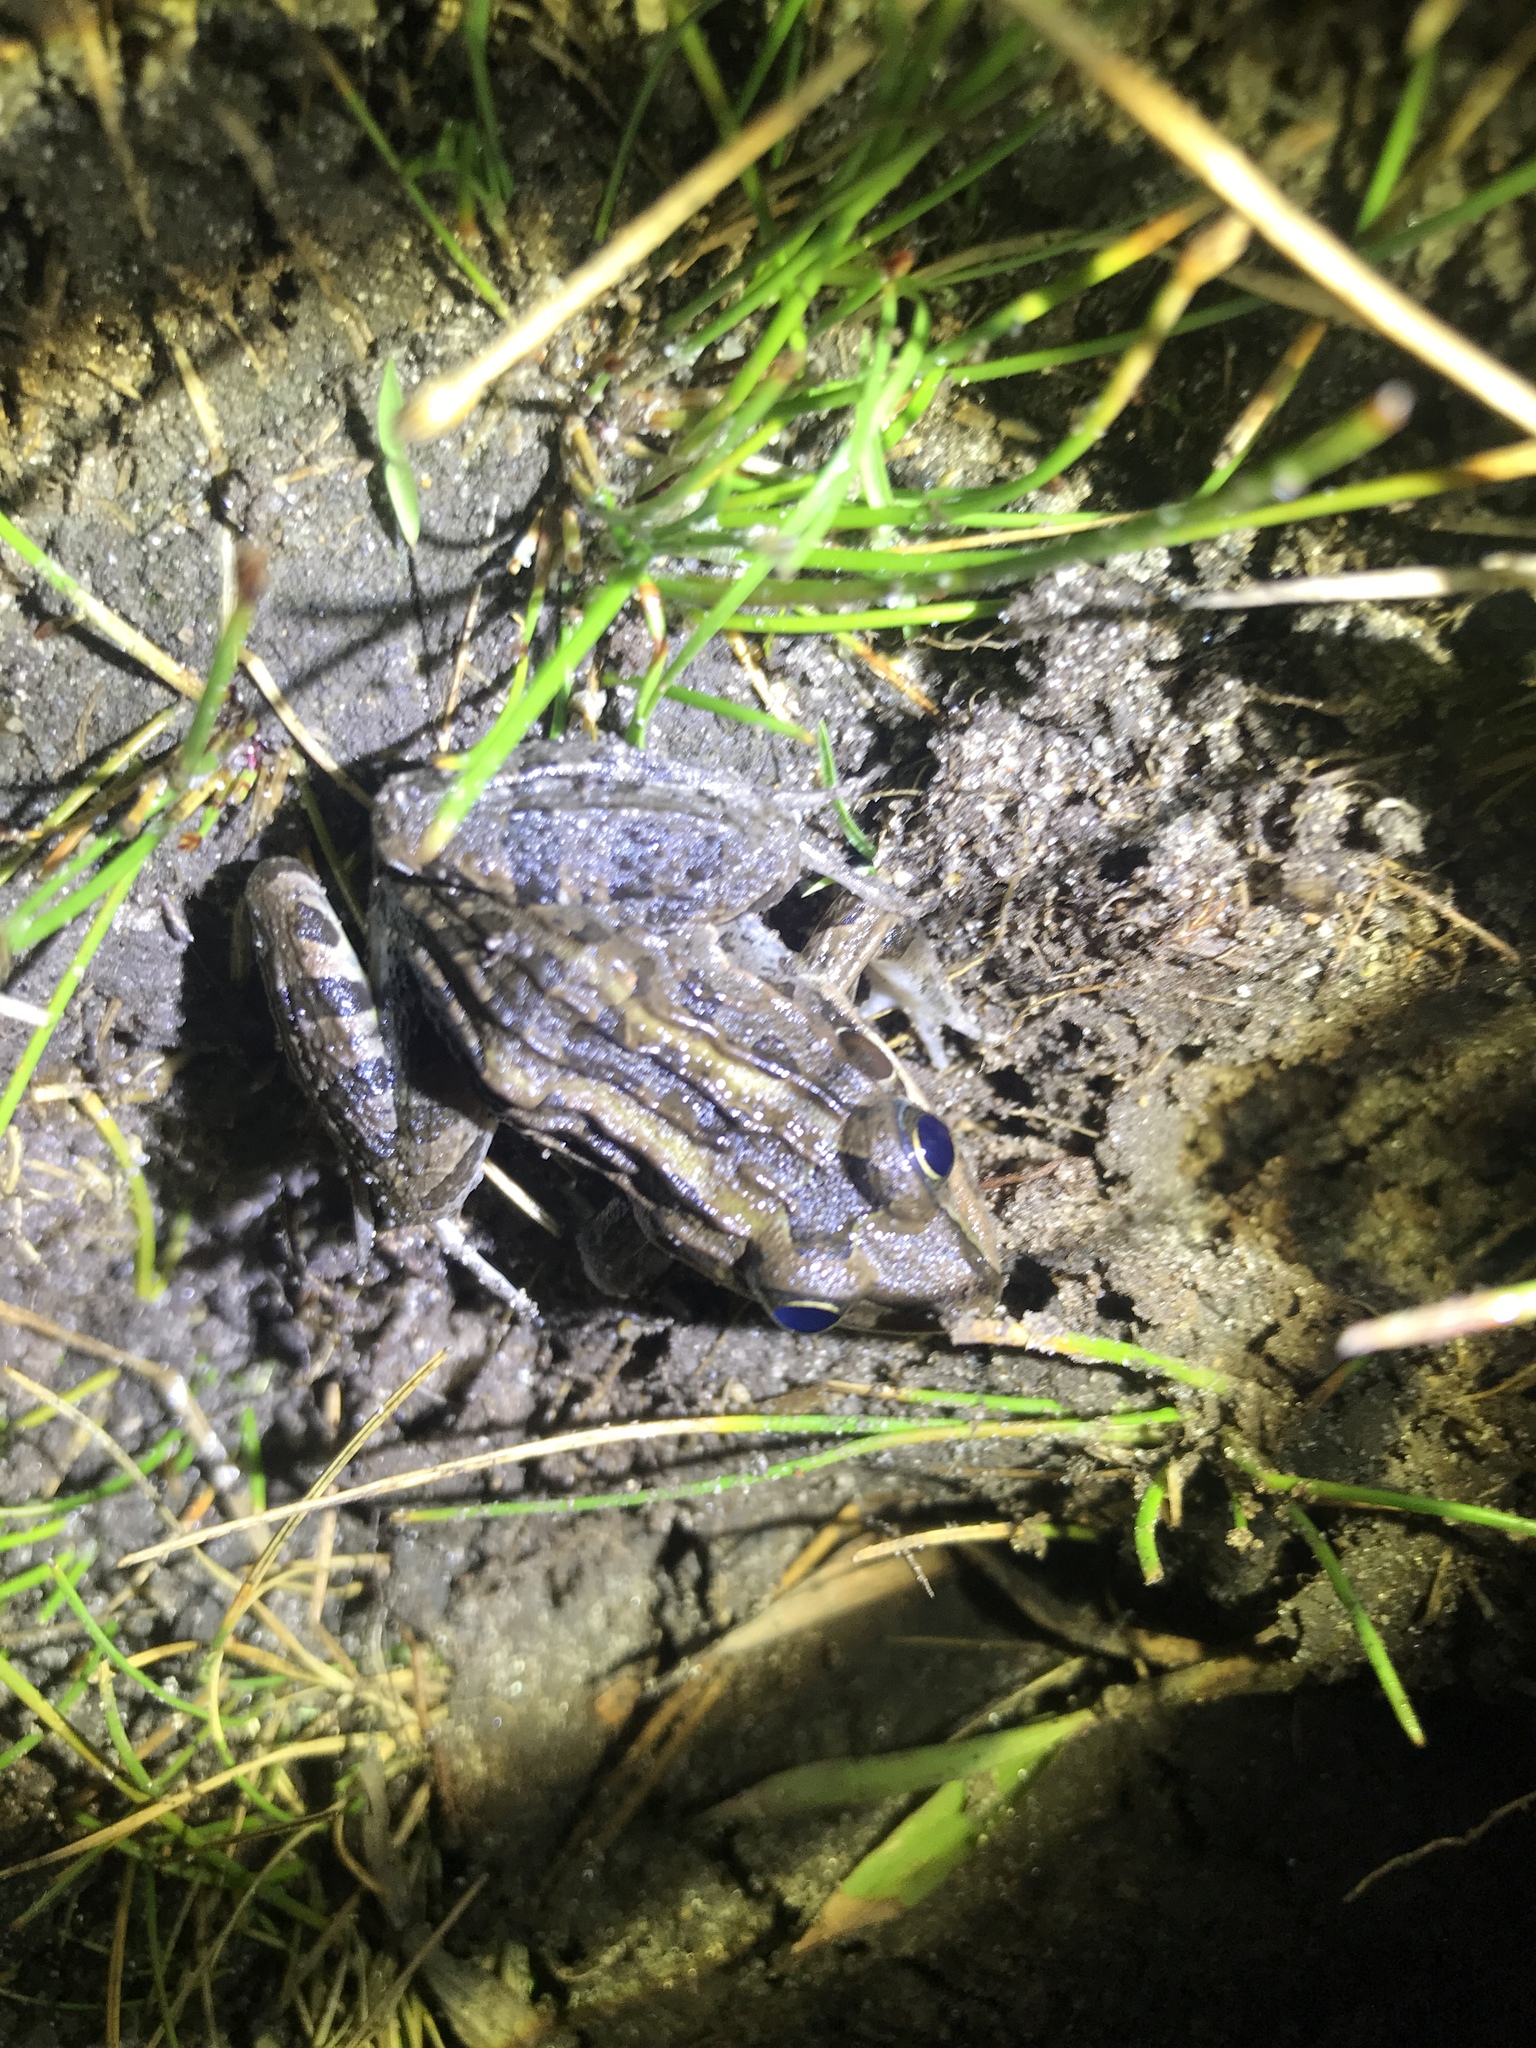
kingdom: Animalia
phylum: Chordata
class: Amphibia
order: Anura
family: Leptodactylidae
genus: Leptodactylus
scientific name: Leptodactylus luctator
